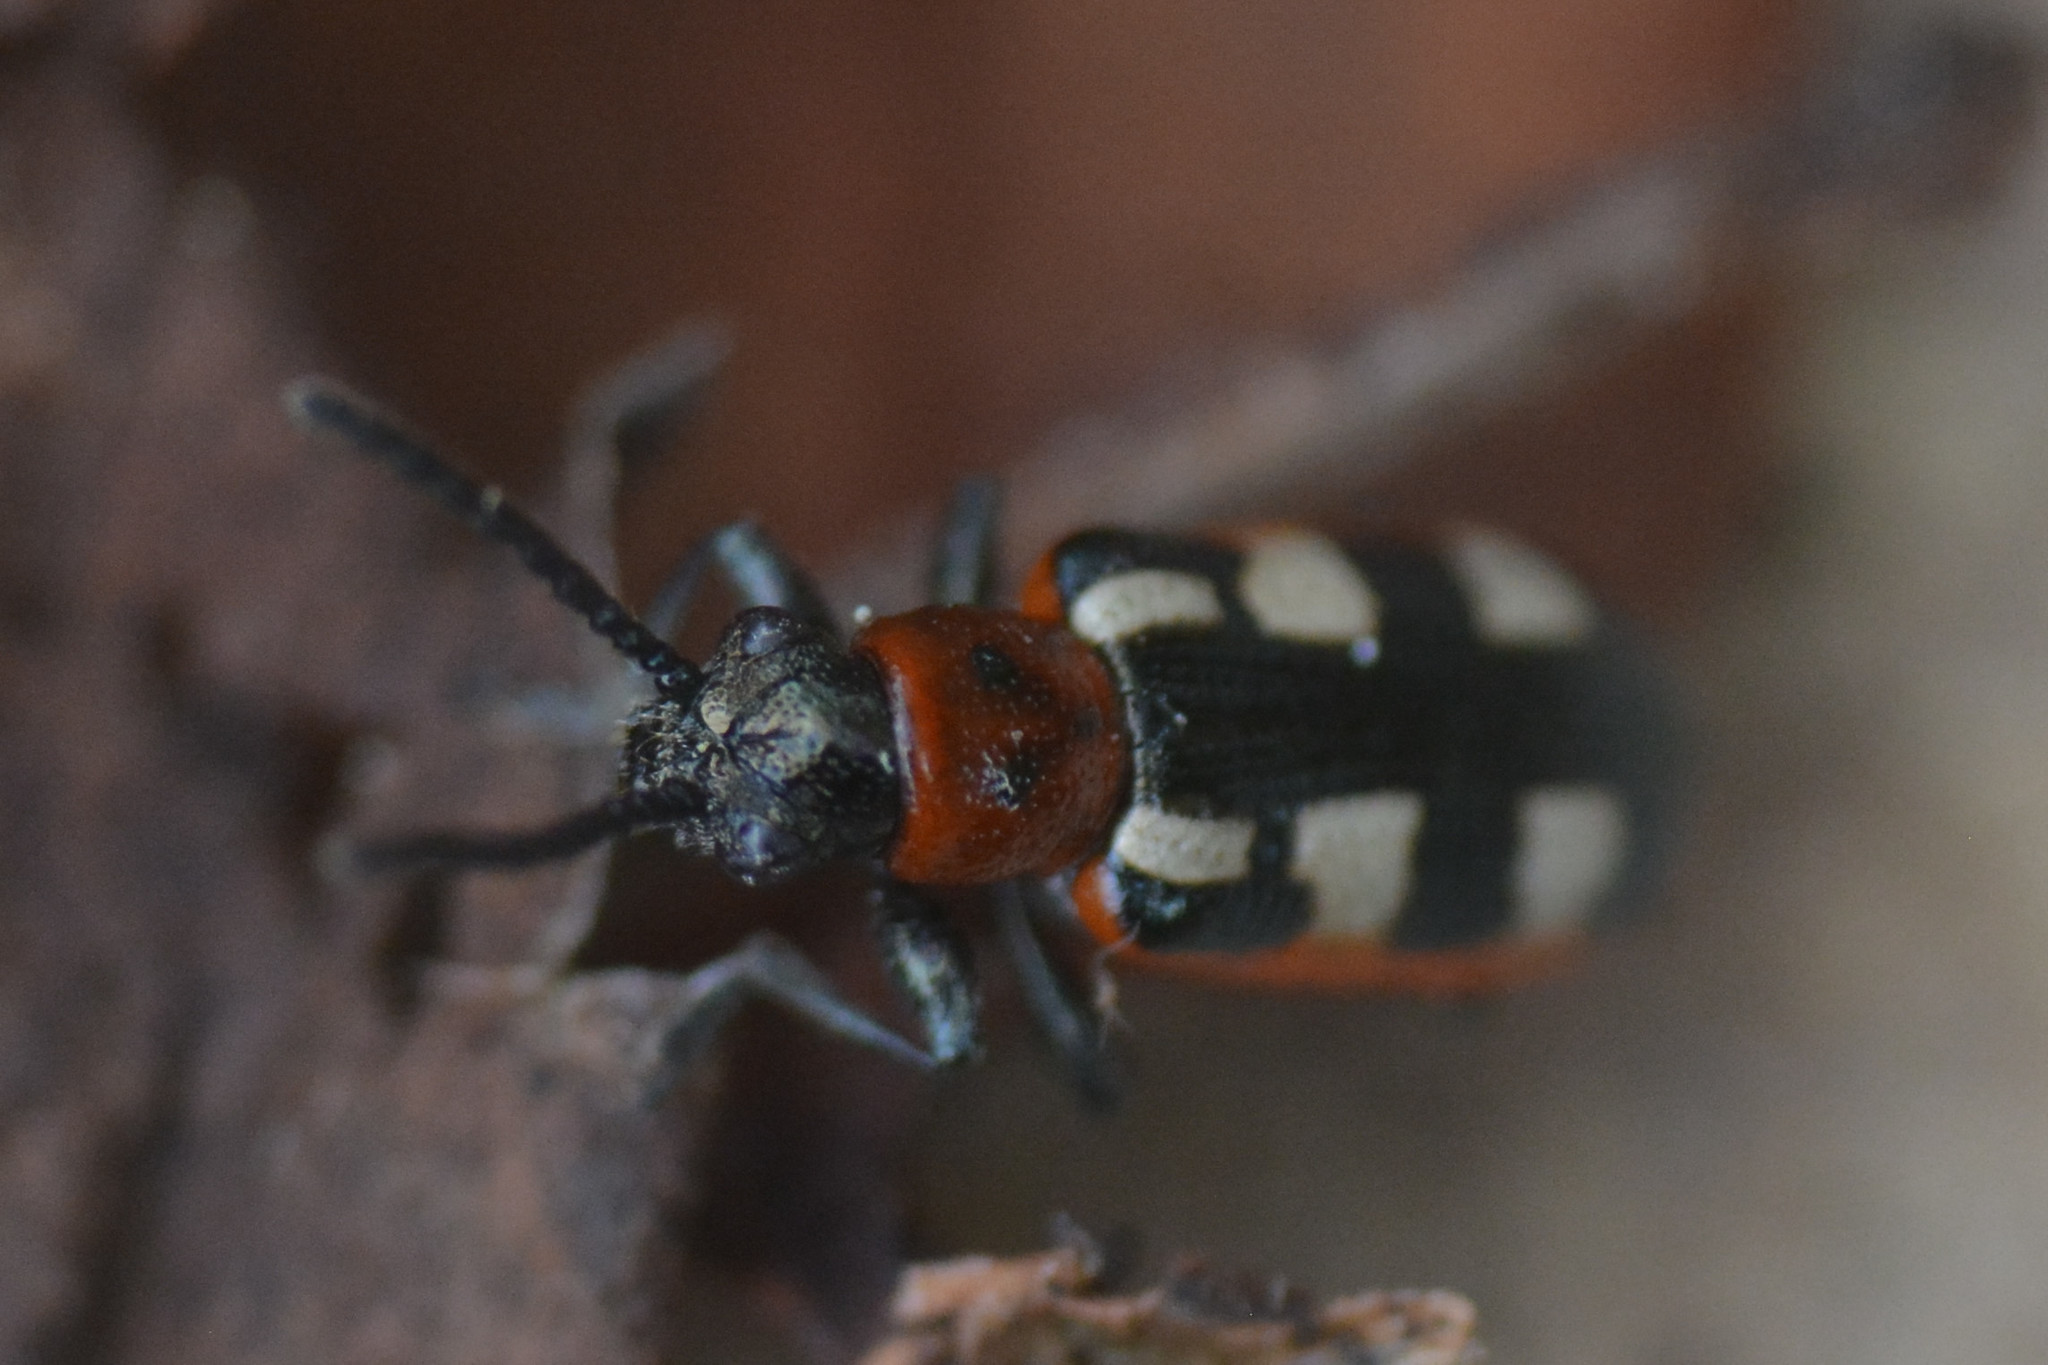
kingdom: Animalia
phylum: Arthropoda
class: Insecta
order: Coleoptera
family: Chrysomelidae
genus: Crioceris
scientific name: Crioceris asparagi
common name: Asparagus beetle
